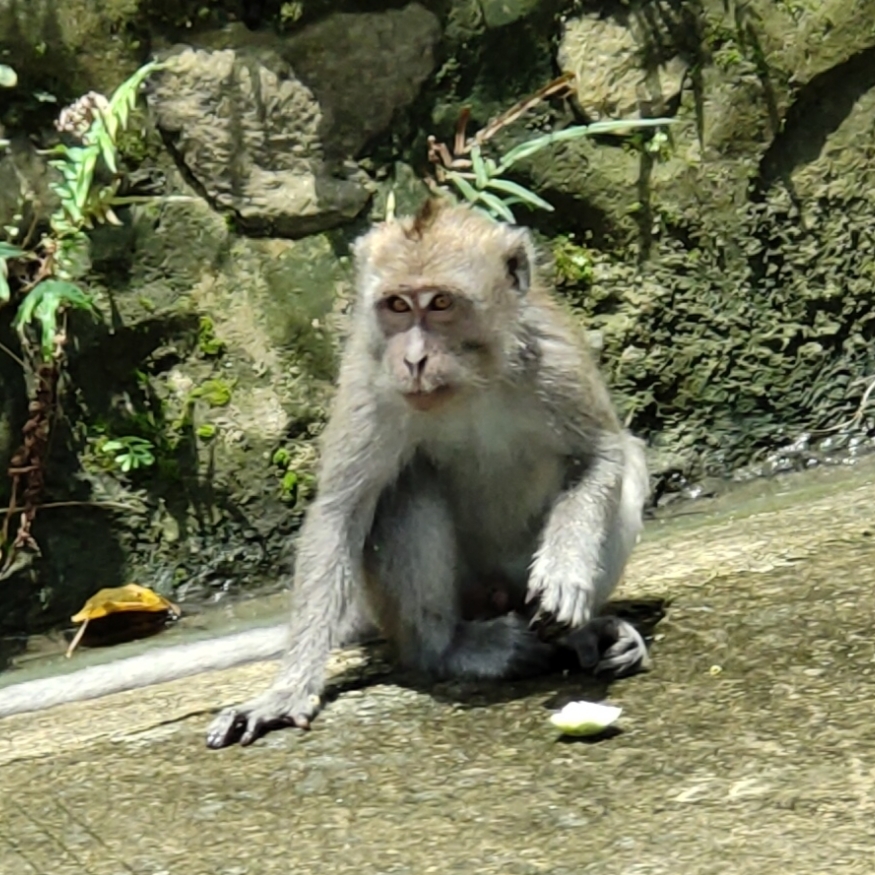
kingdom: Animalia
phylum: Chordata
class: Mammalia
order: Primates
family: Cercopithecidae
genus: Macaca
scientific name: Macaca fascicularis
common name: Crab-eating macaque
